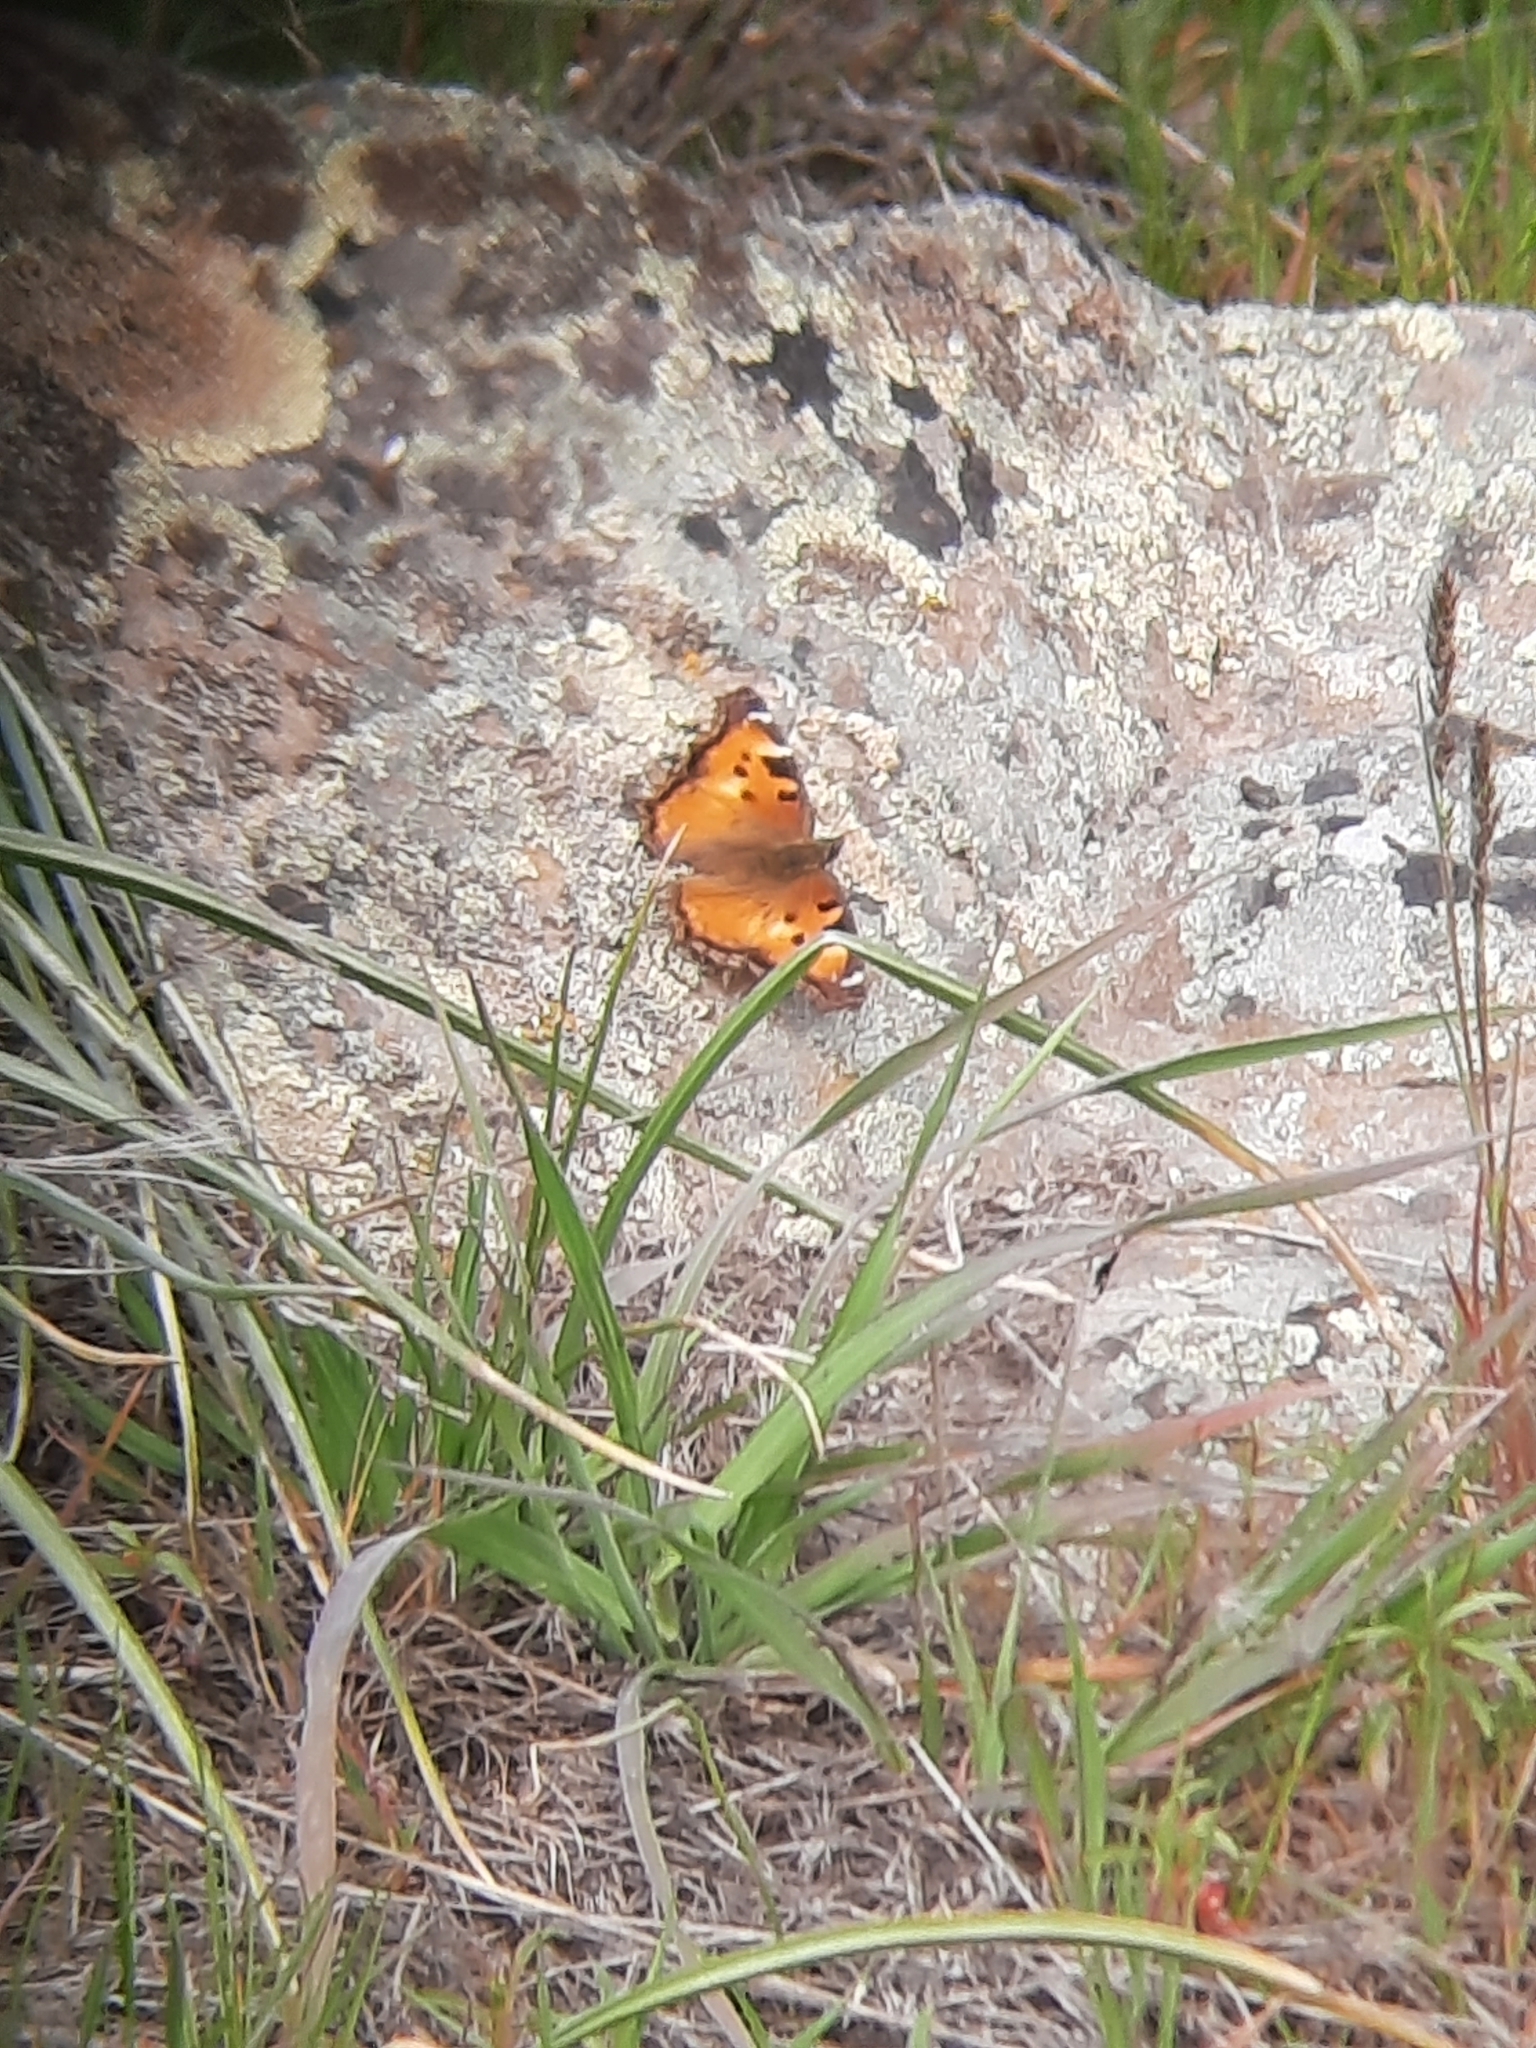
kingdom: Animalia
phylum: Arthropoda
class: Insecta
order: Lepidoptera
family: Nymphalidae
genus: Nymphalis
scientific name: Nymphalis californica
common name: California tortoiseshell
